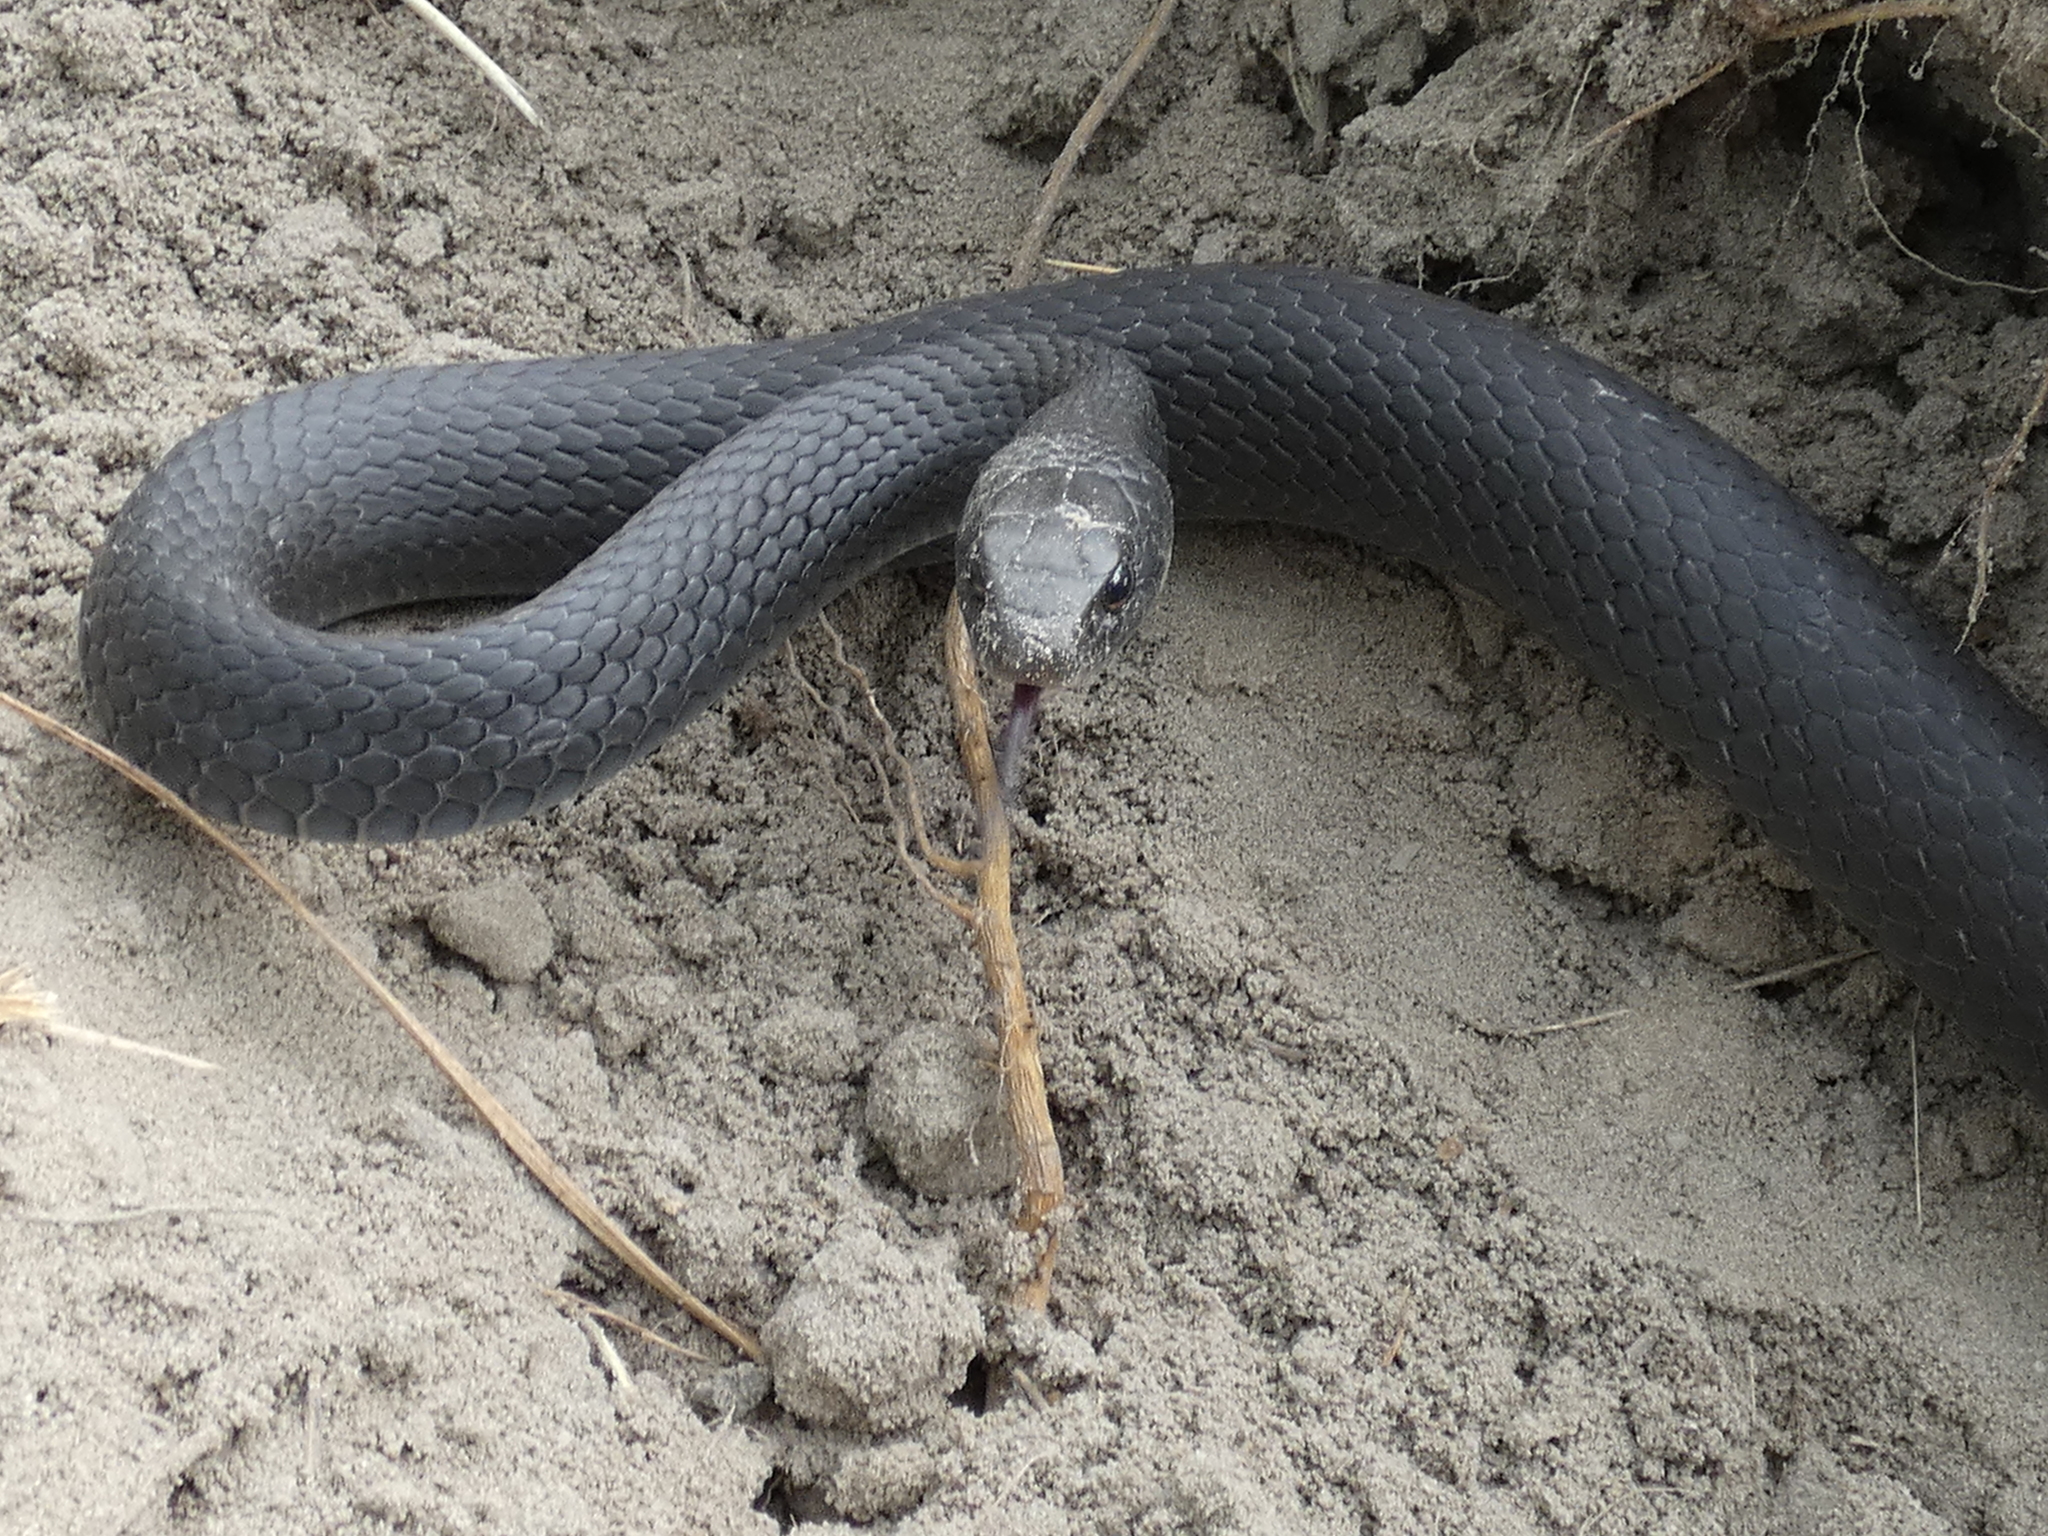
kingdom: Animalia
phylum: Chordata
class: Squamata
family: Colubridae
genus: Coluber
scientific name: Coluber constrictor
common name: Eastern racer
